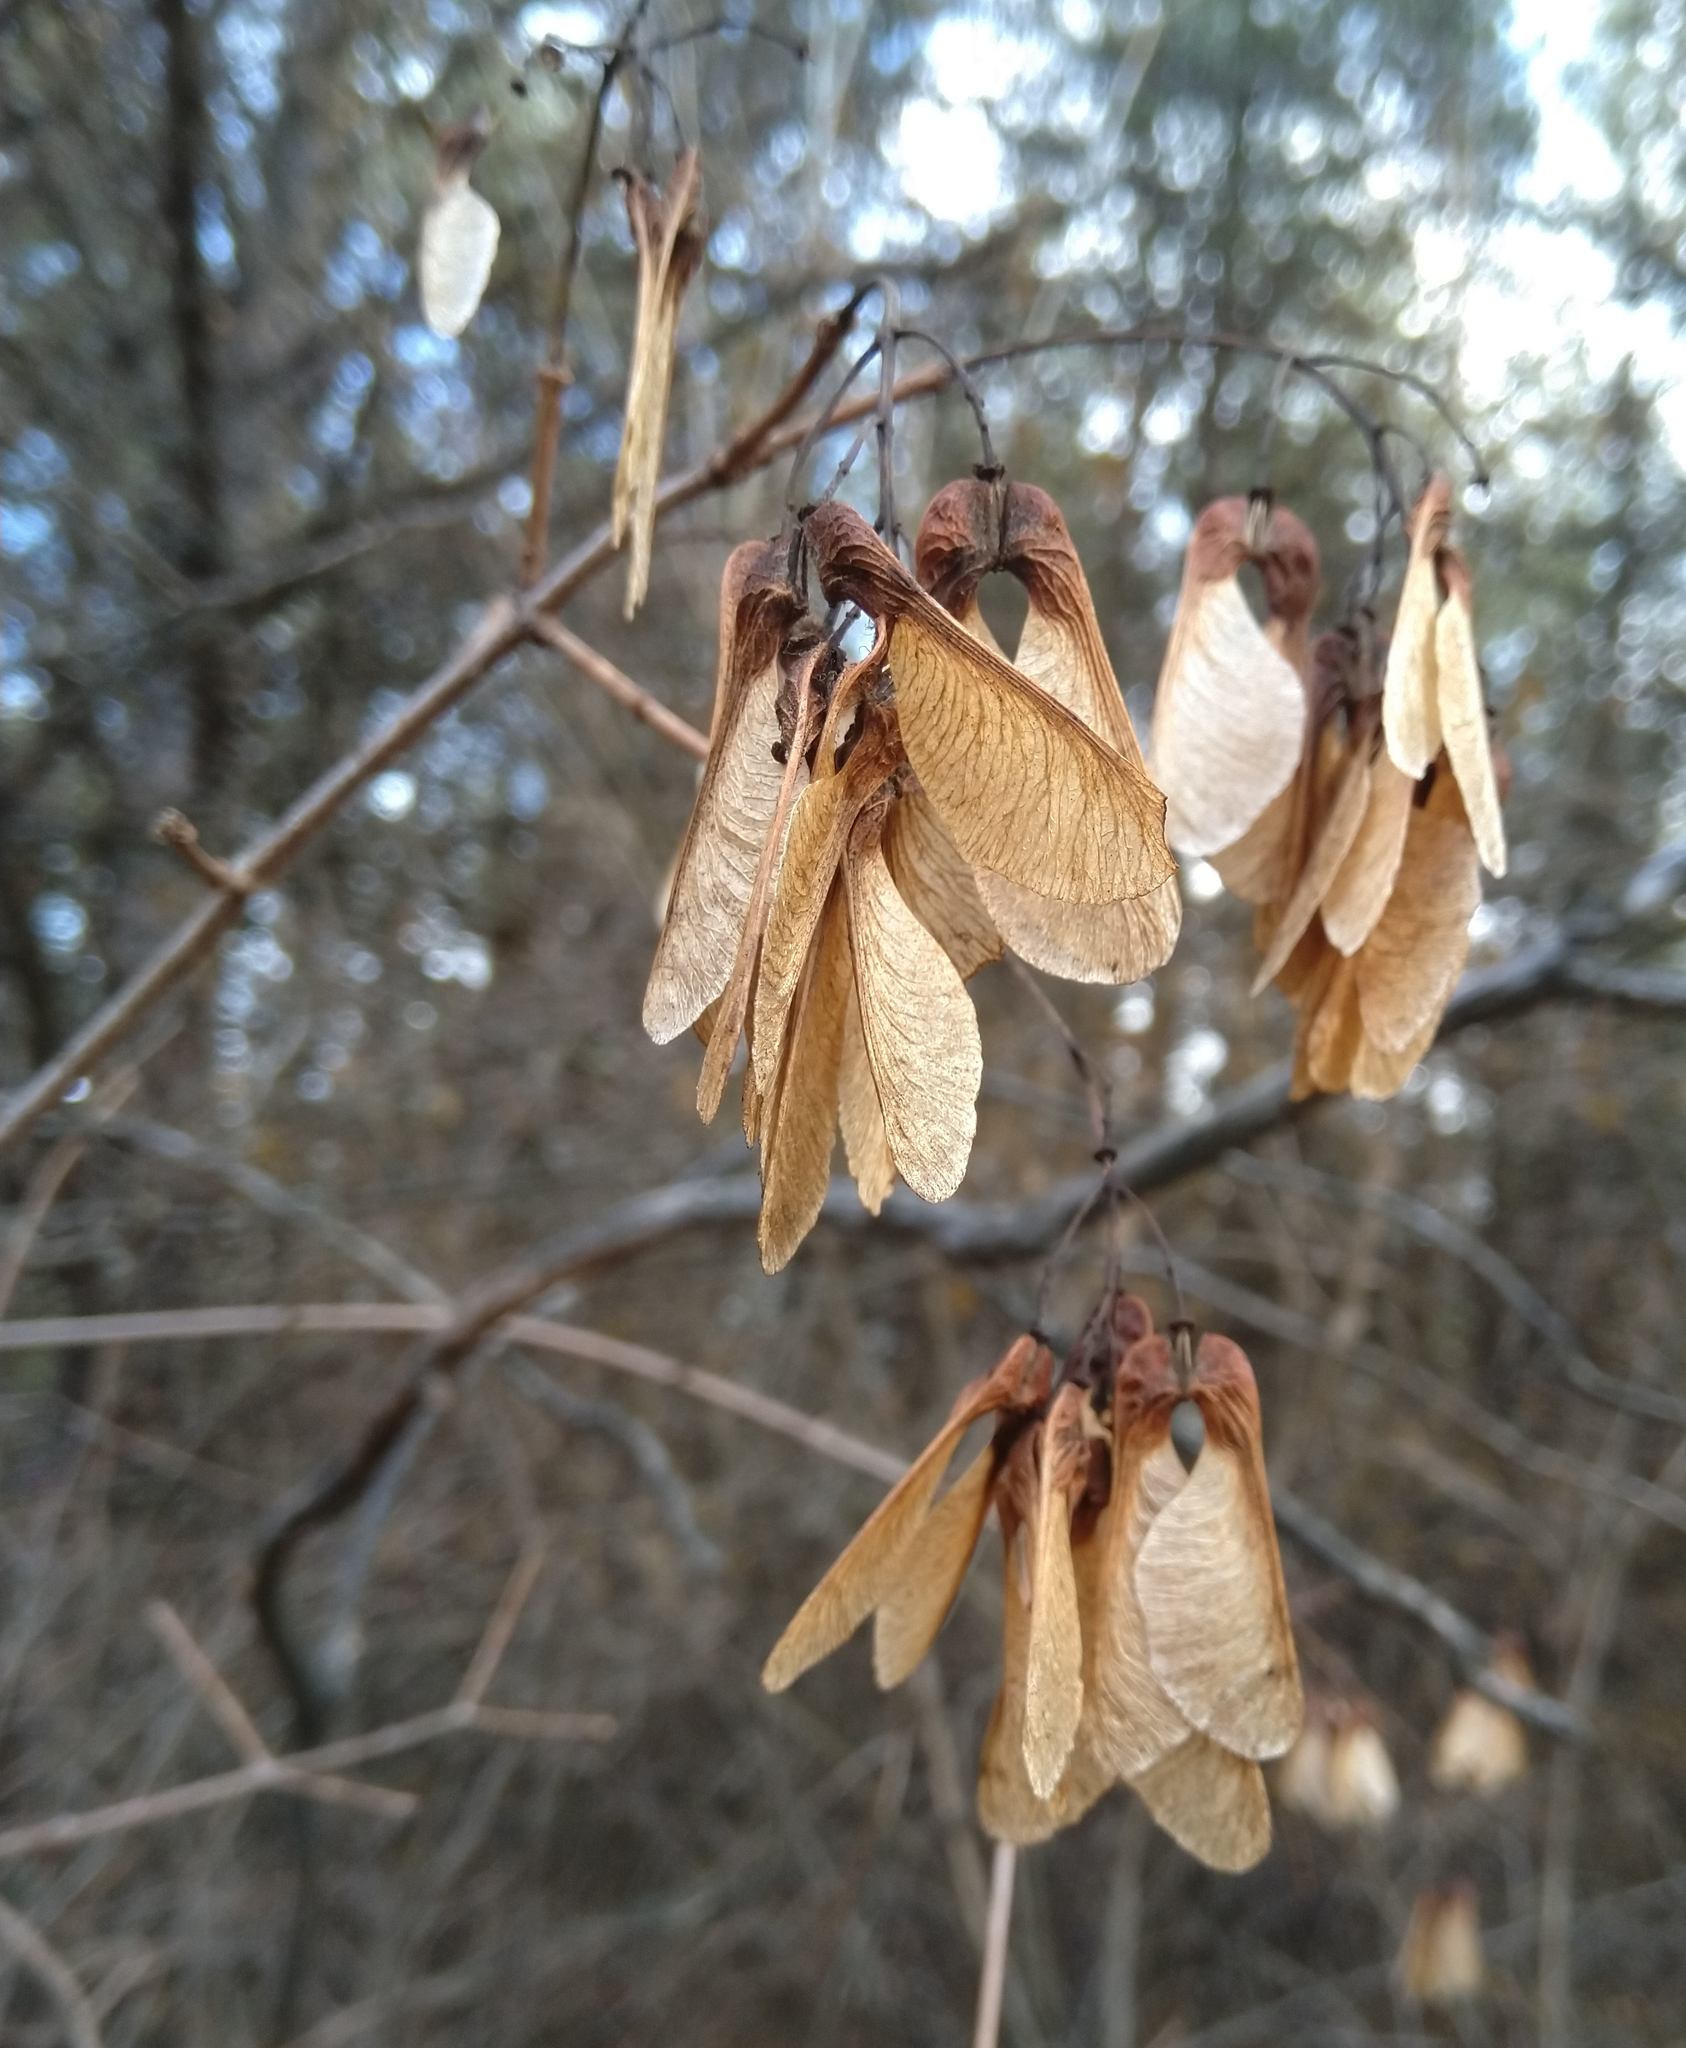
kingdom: Plantae
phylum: Tracheophyta
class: Magnoliopsida
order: Sapindales
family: Sapindaceae
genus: Acer
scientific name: Acer tataricum
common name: Tartar maple
